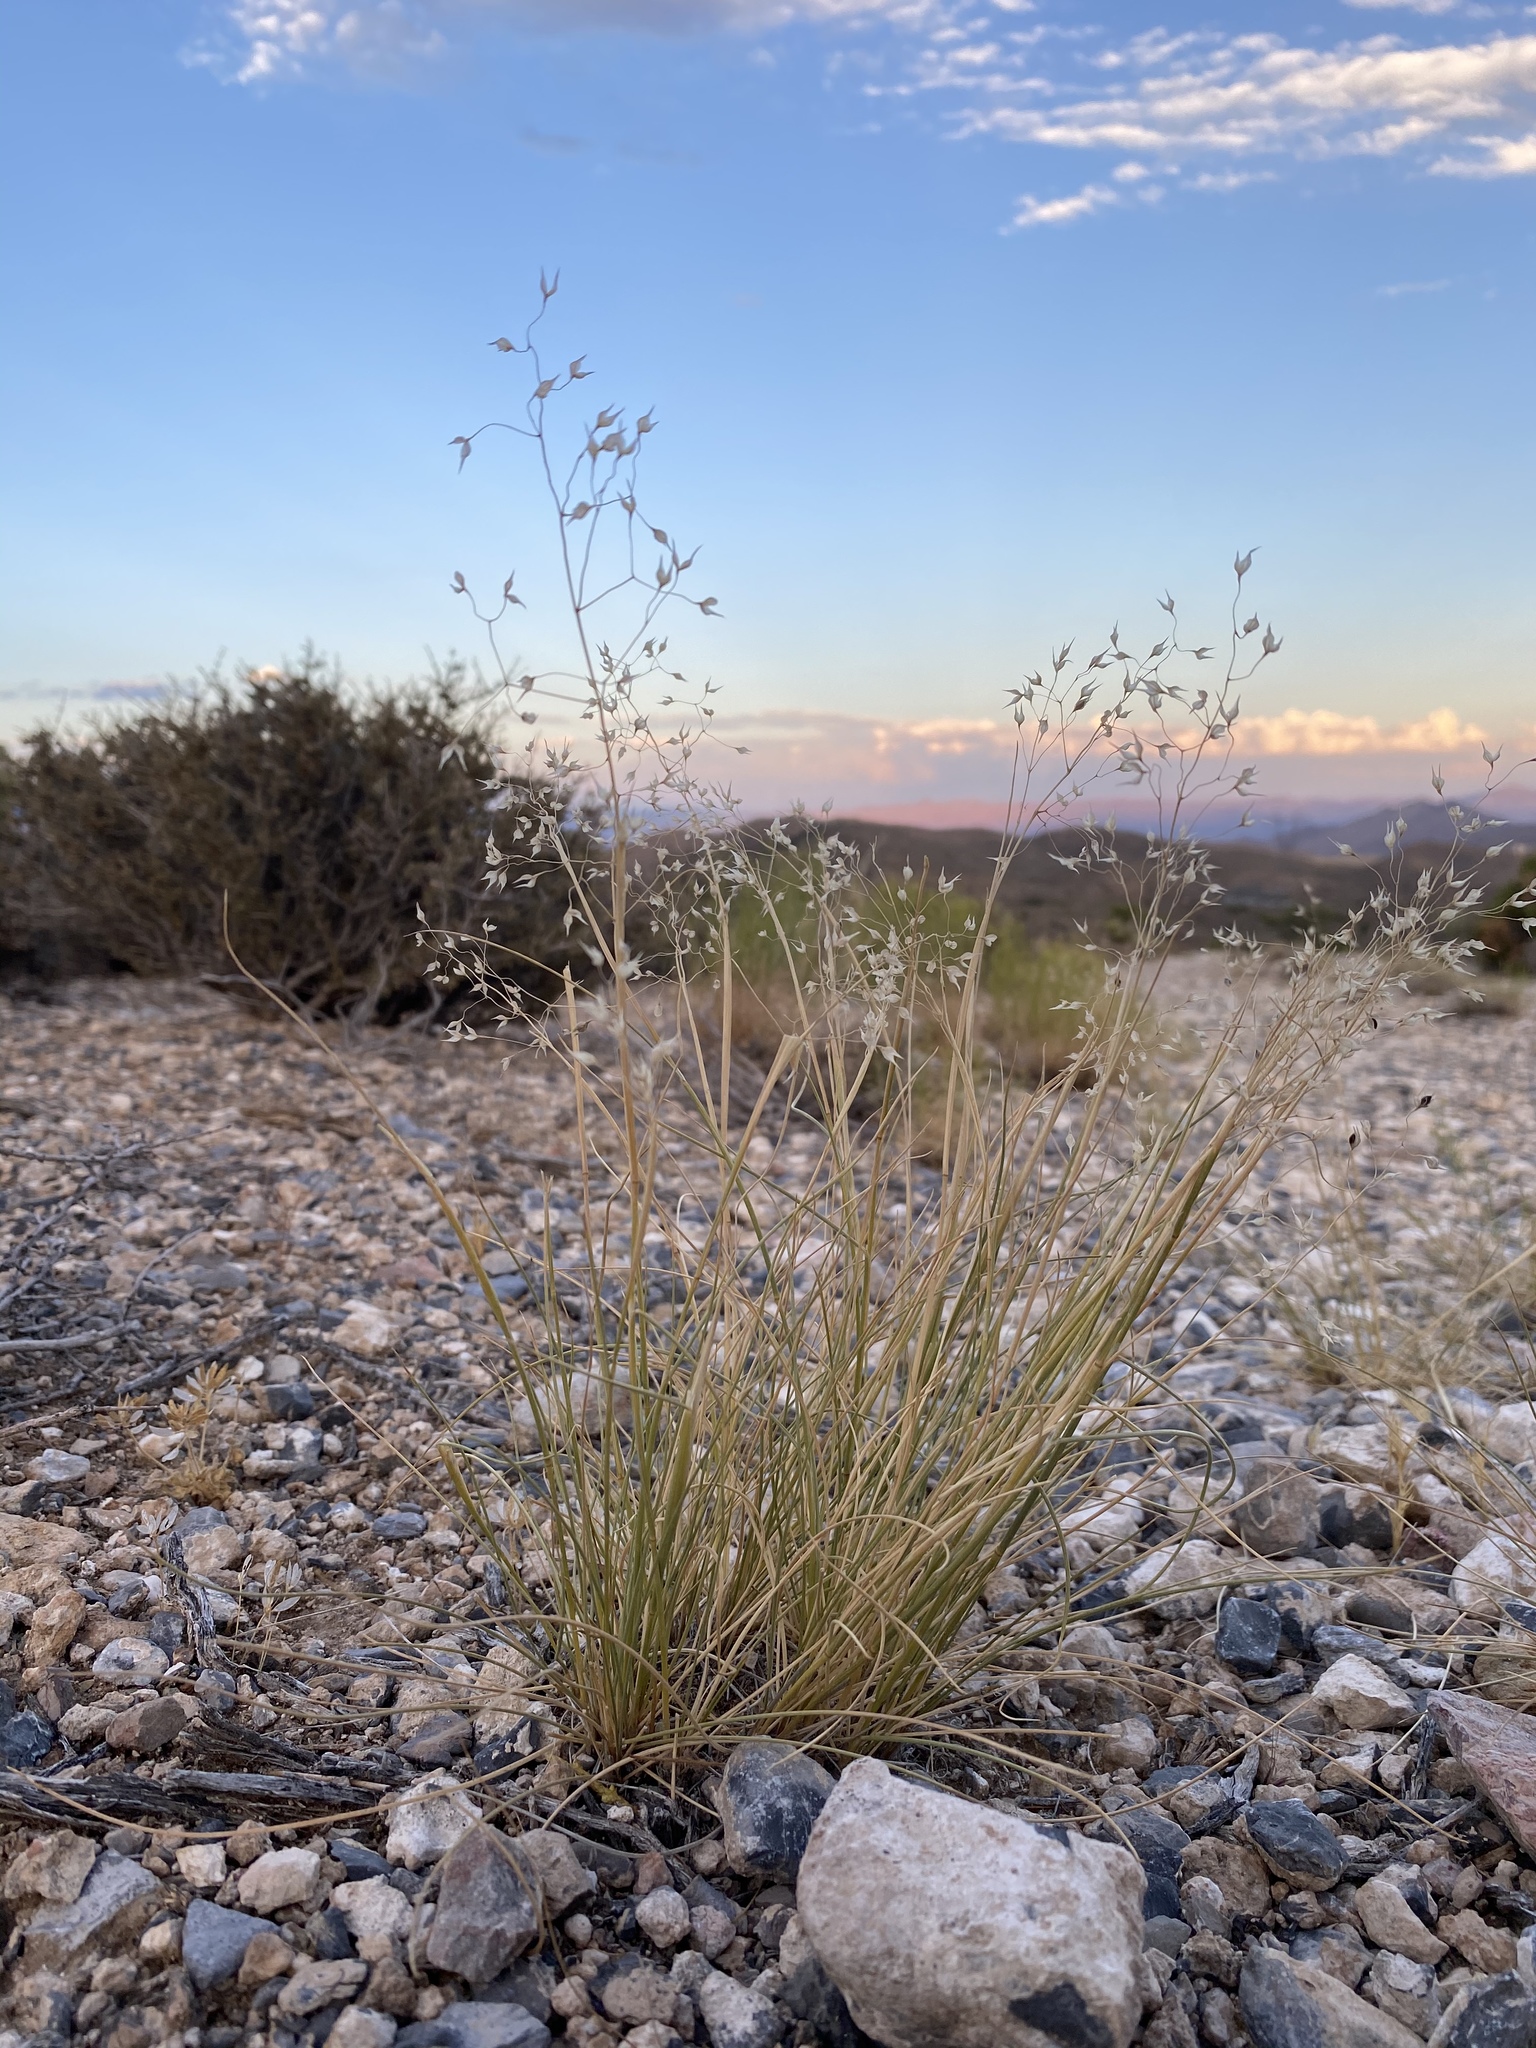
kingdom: Plantae
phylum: Tracheophyta
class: Liliopsida
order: Poales
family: Poaceae
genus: Eriocoma
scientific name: Eriocoma hymenoides
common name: Indian mountain ricegrass
